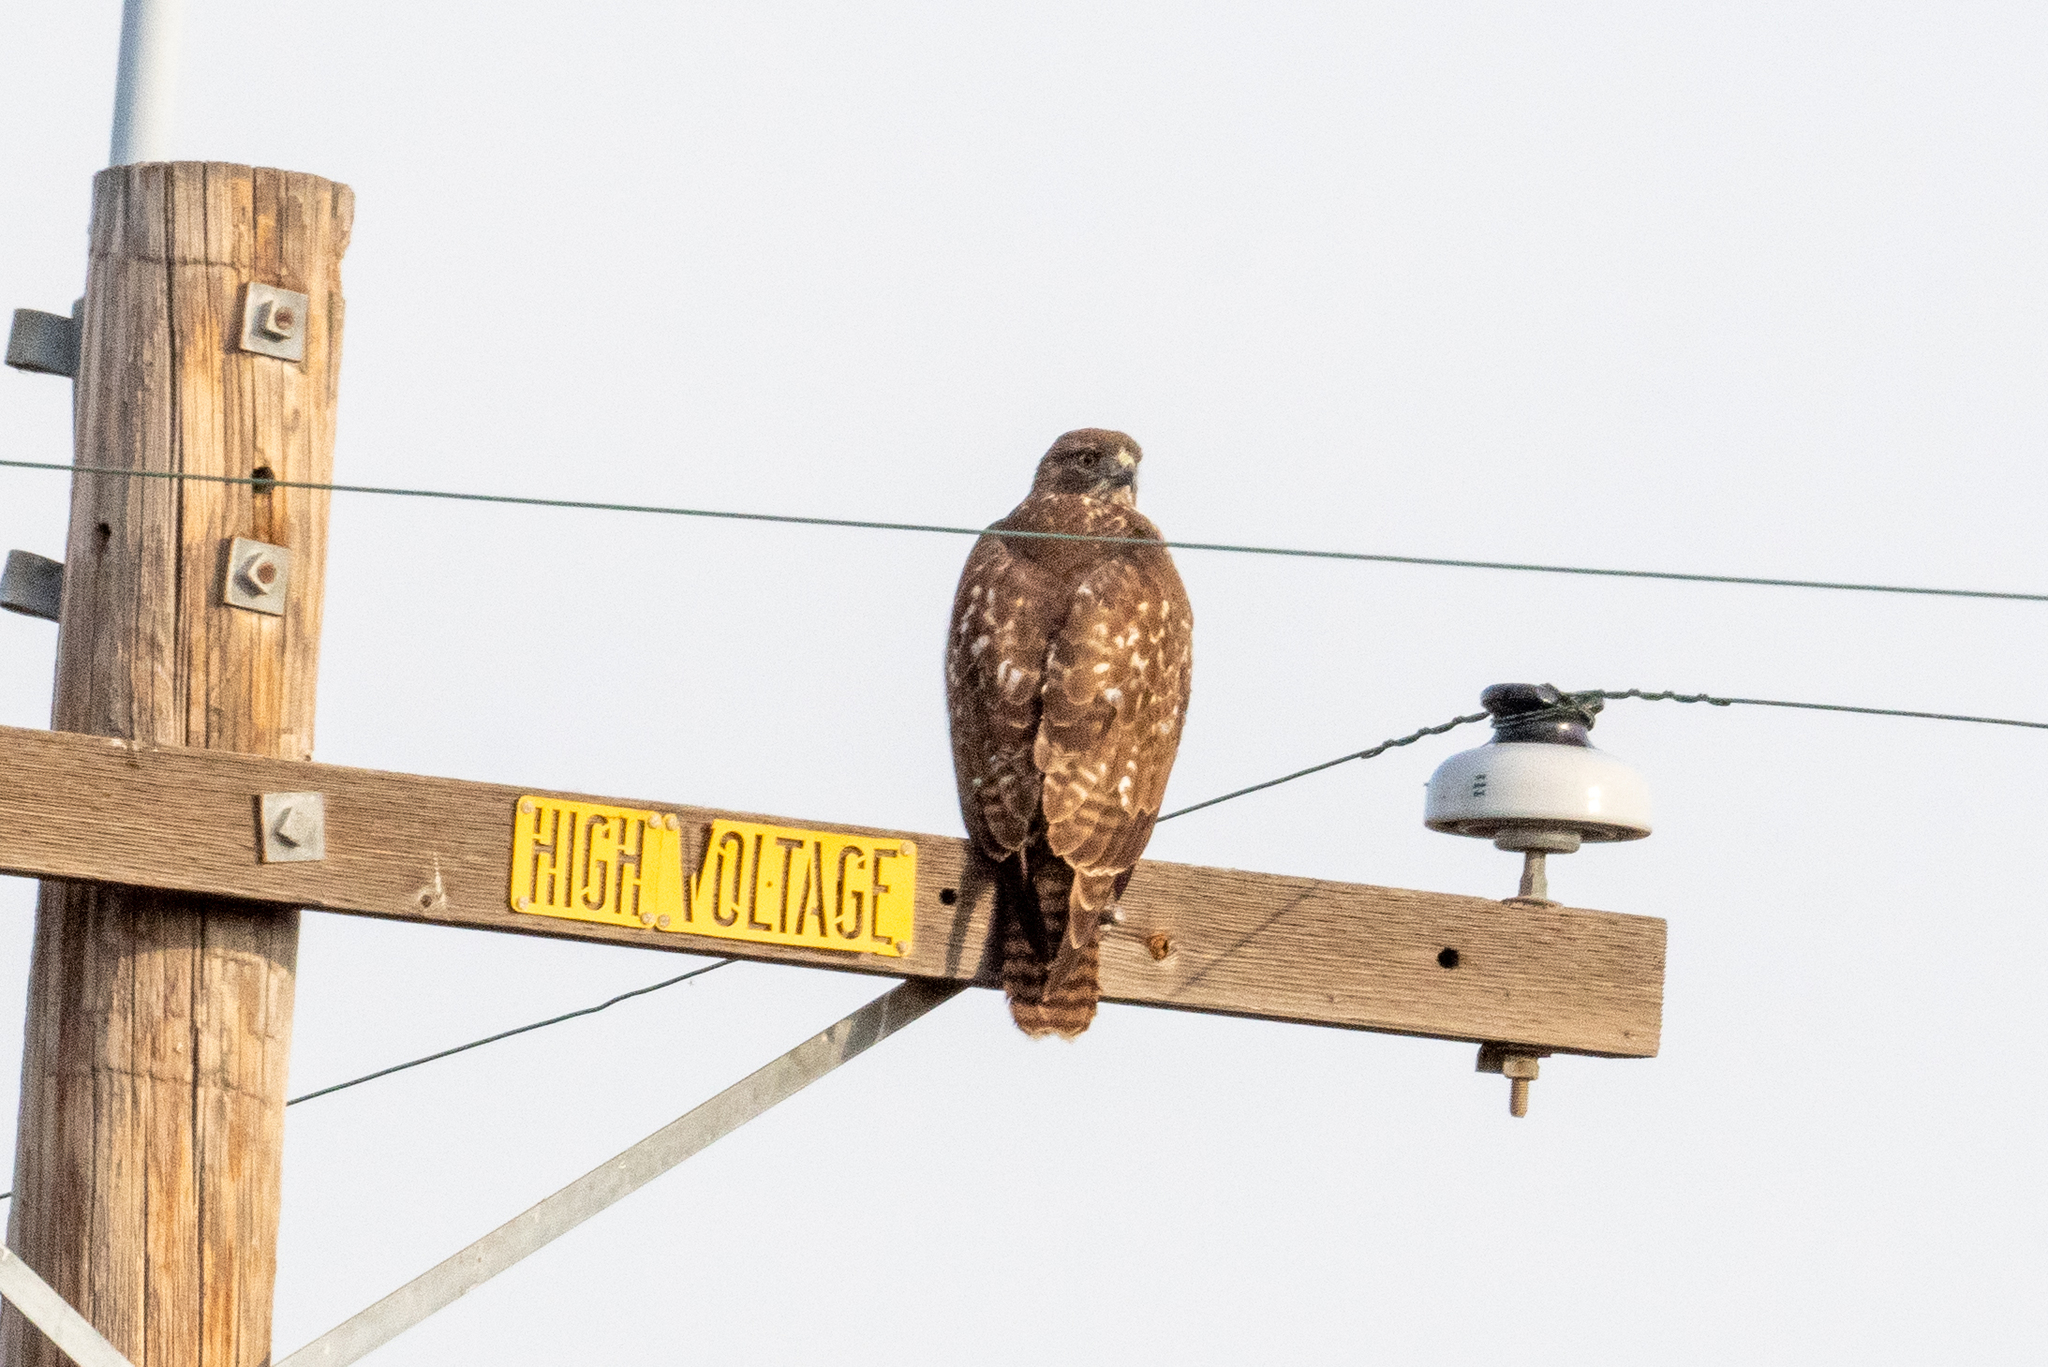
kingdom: Animalia
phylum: Chordata
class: Aves
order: Accipitriformes
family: Accipitridae
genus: Buteo
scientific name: Buteo jamaicensis
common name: Red-tailed hawk
